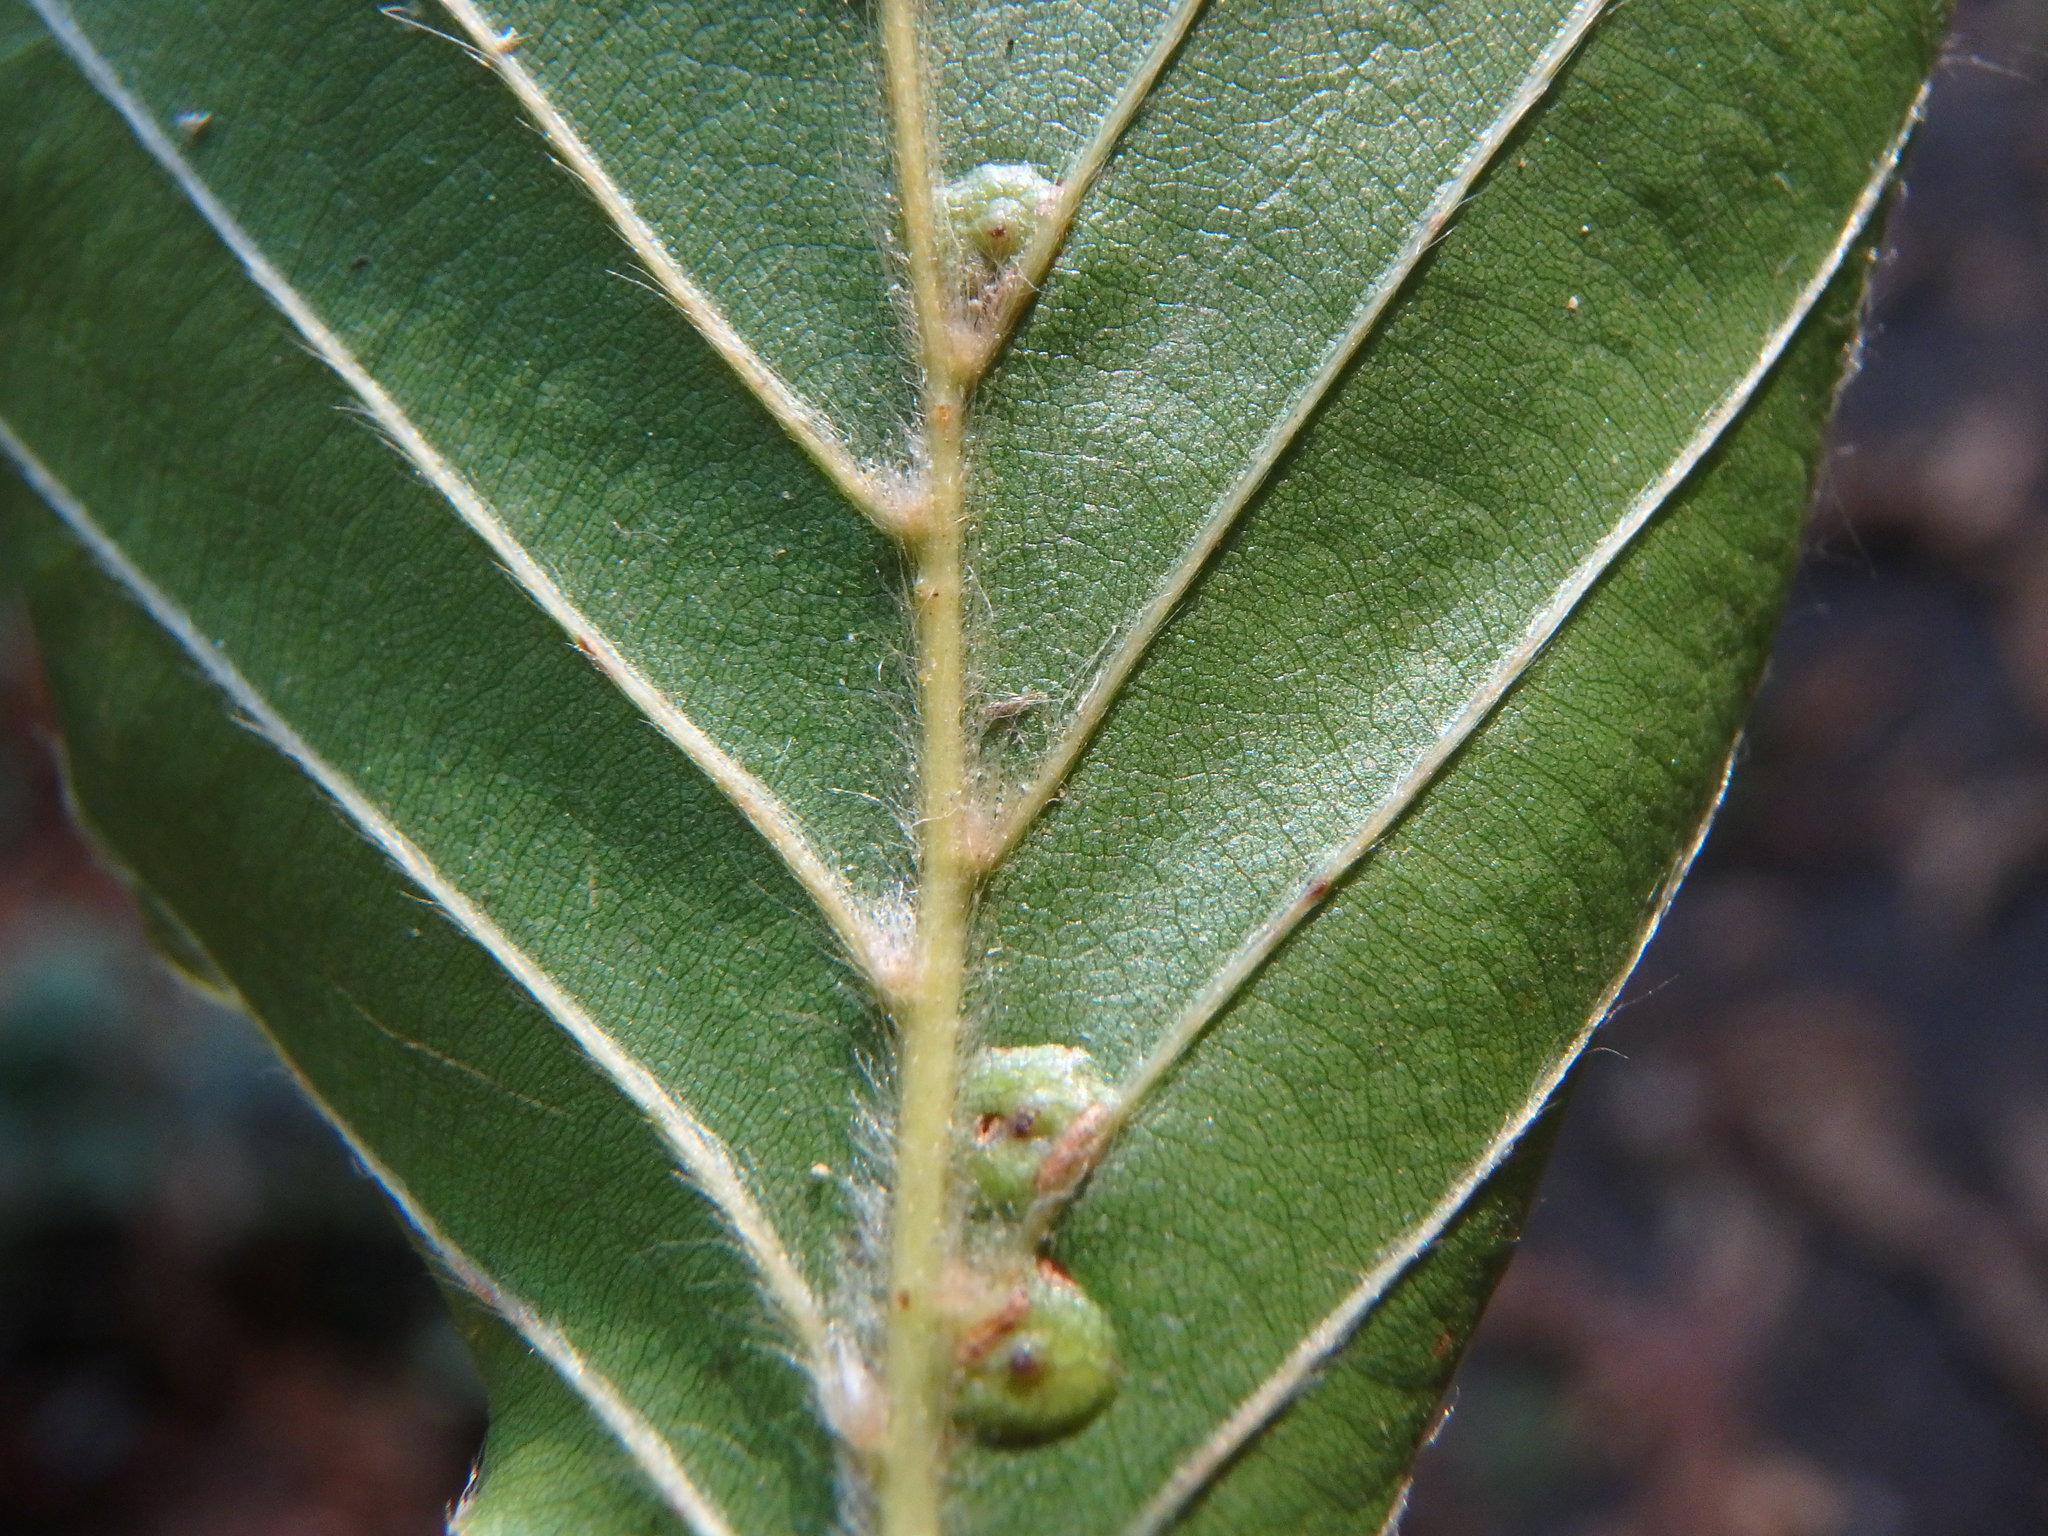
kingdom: Animalia
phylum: Arthropoda
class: Insecta
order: Diptera
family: Cecidomyiidae
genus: Hartigiola
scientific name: Hartigiola annulipes
